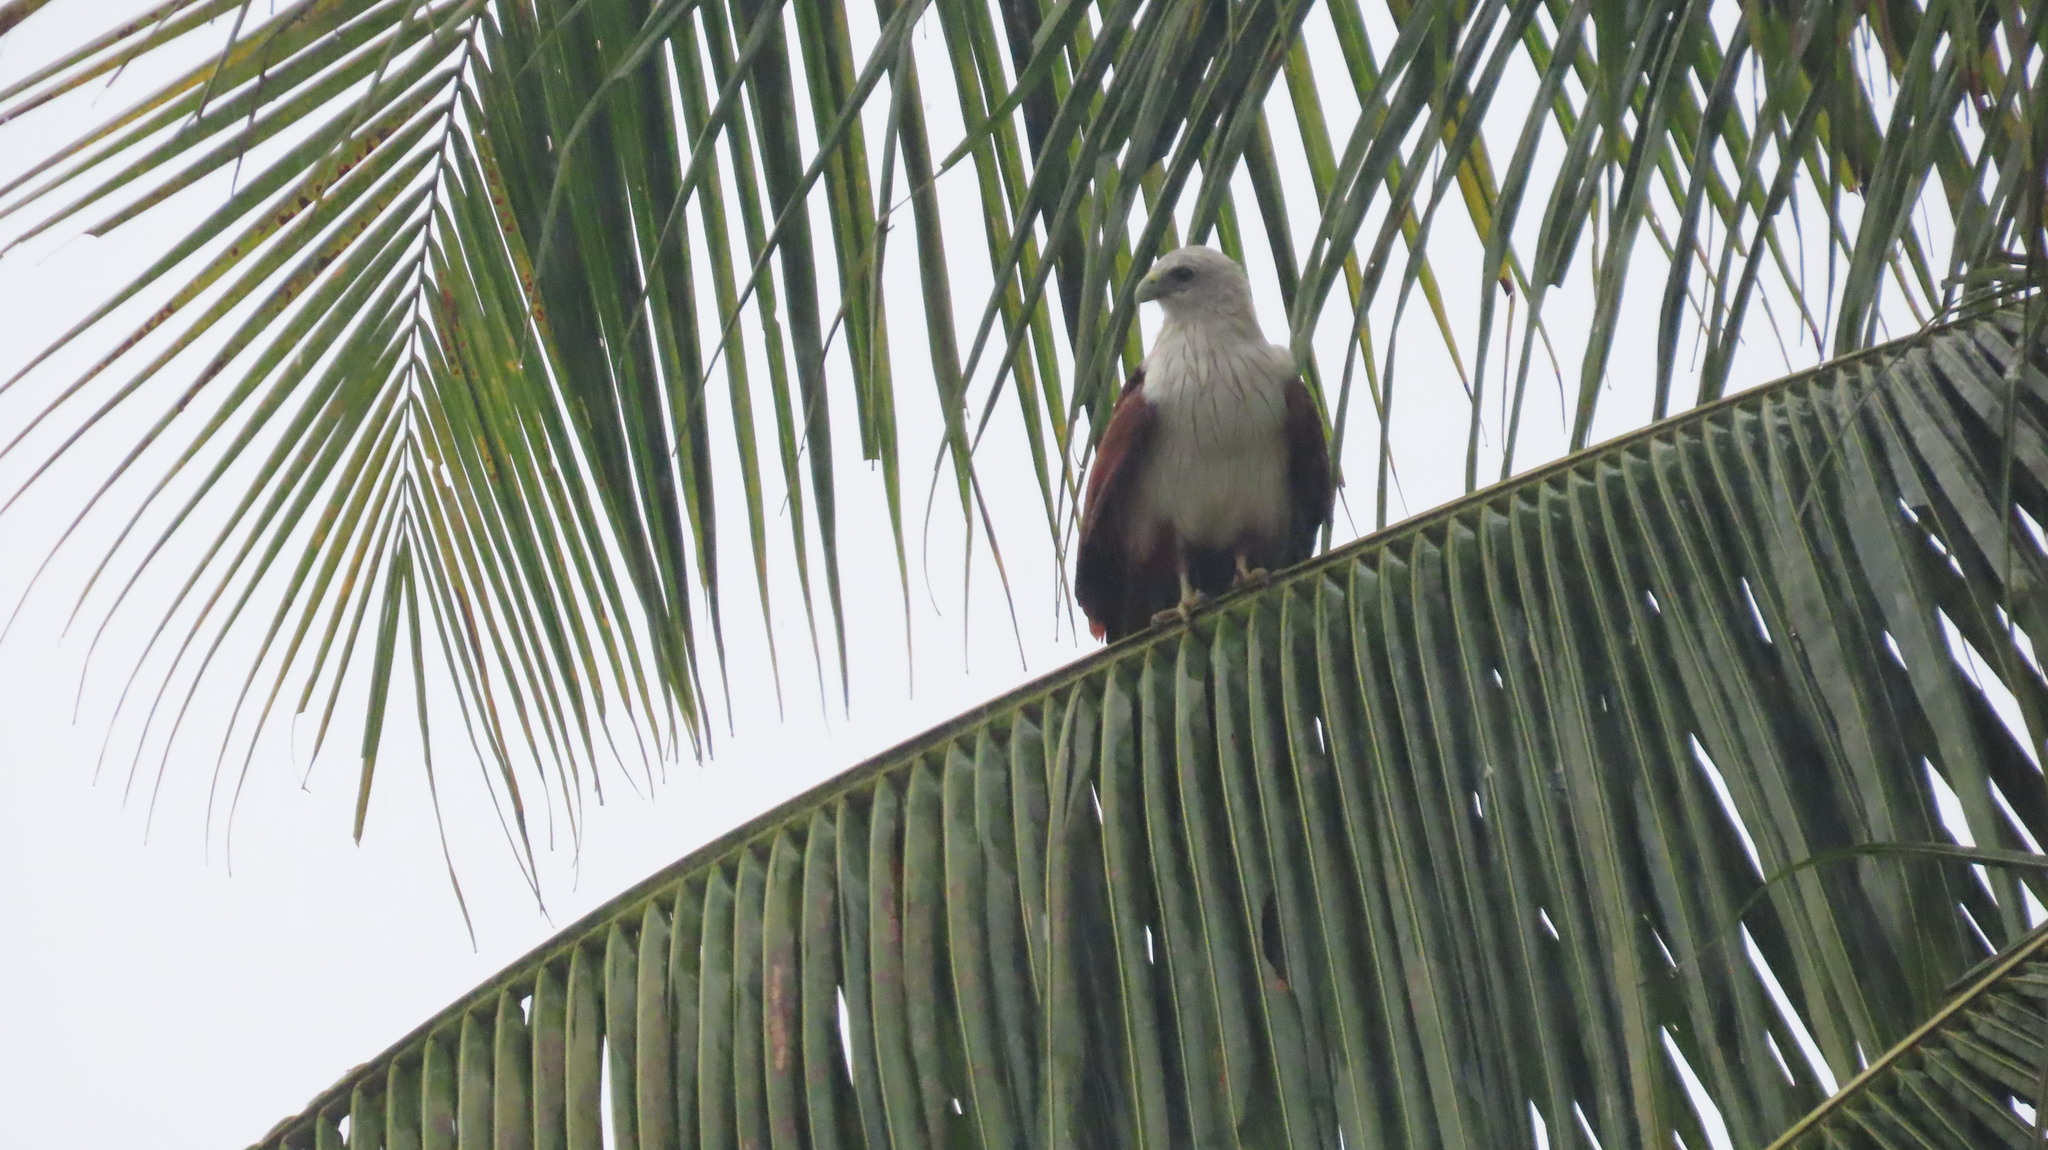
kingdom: Animalia
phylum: Chordata
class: Aves
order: Accipitriformes
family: Accipitridae
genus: Haliastur
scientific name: Haliastur indus
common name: Brahminy kite
